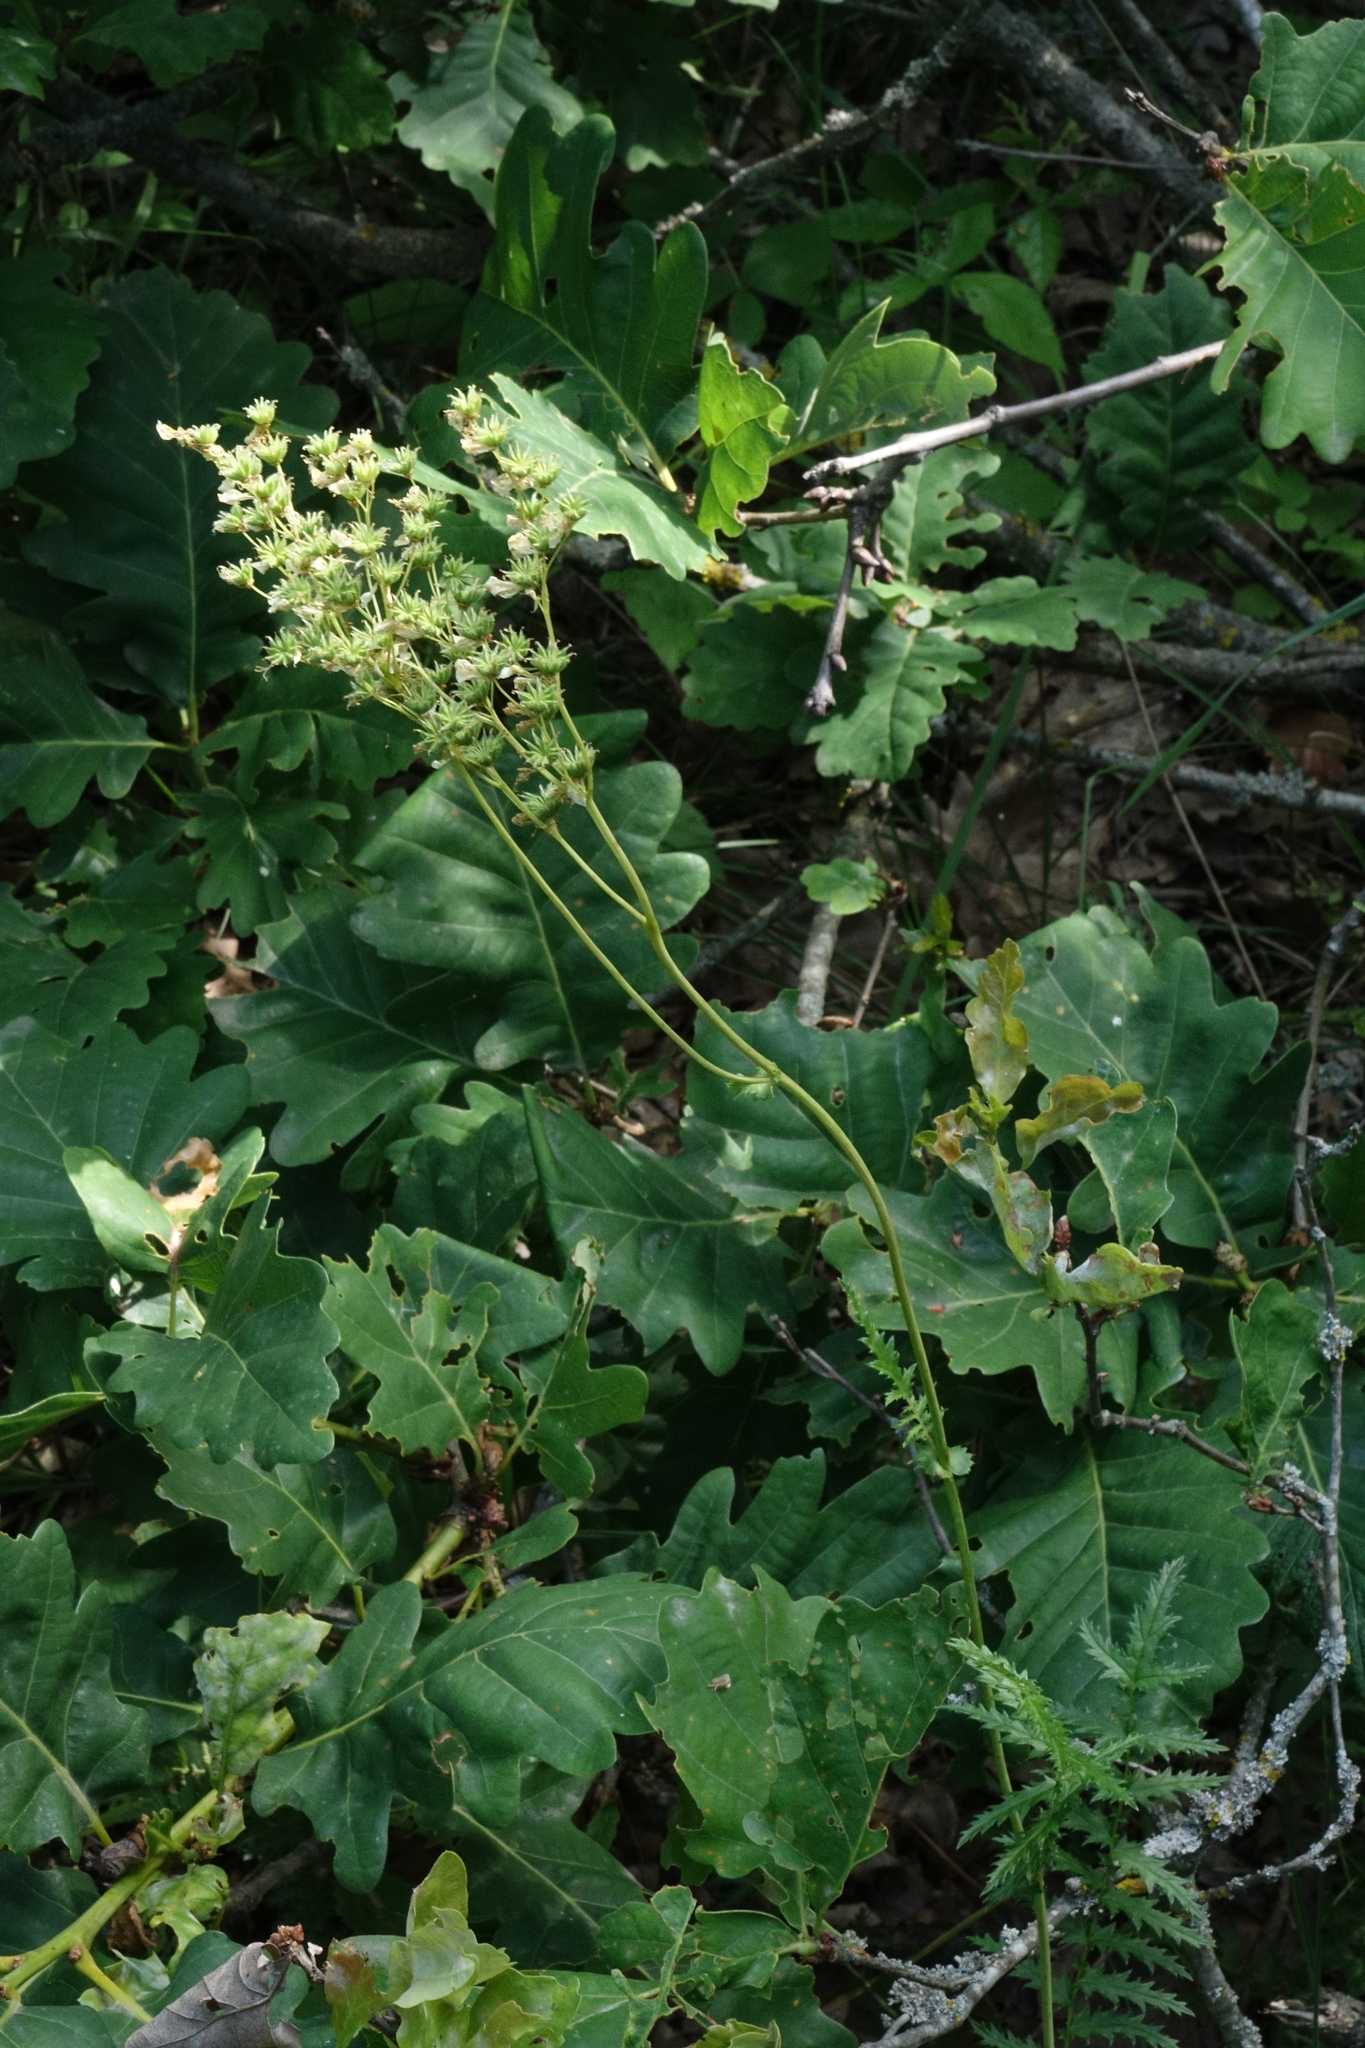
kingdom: Plantae
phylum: Tracheophyta
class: Magnoliopsida
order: Rosales
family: Rosaceae
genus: Filipendula
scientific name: Filipendula vulgaris
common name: Dropwort
